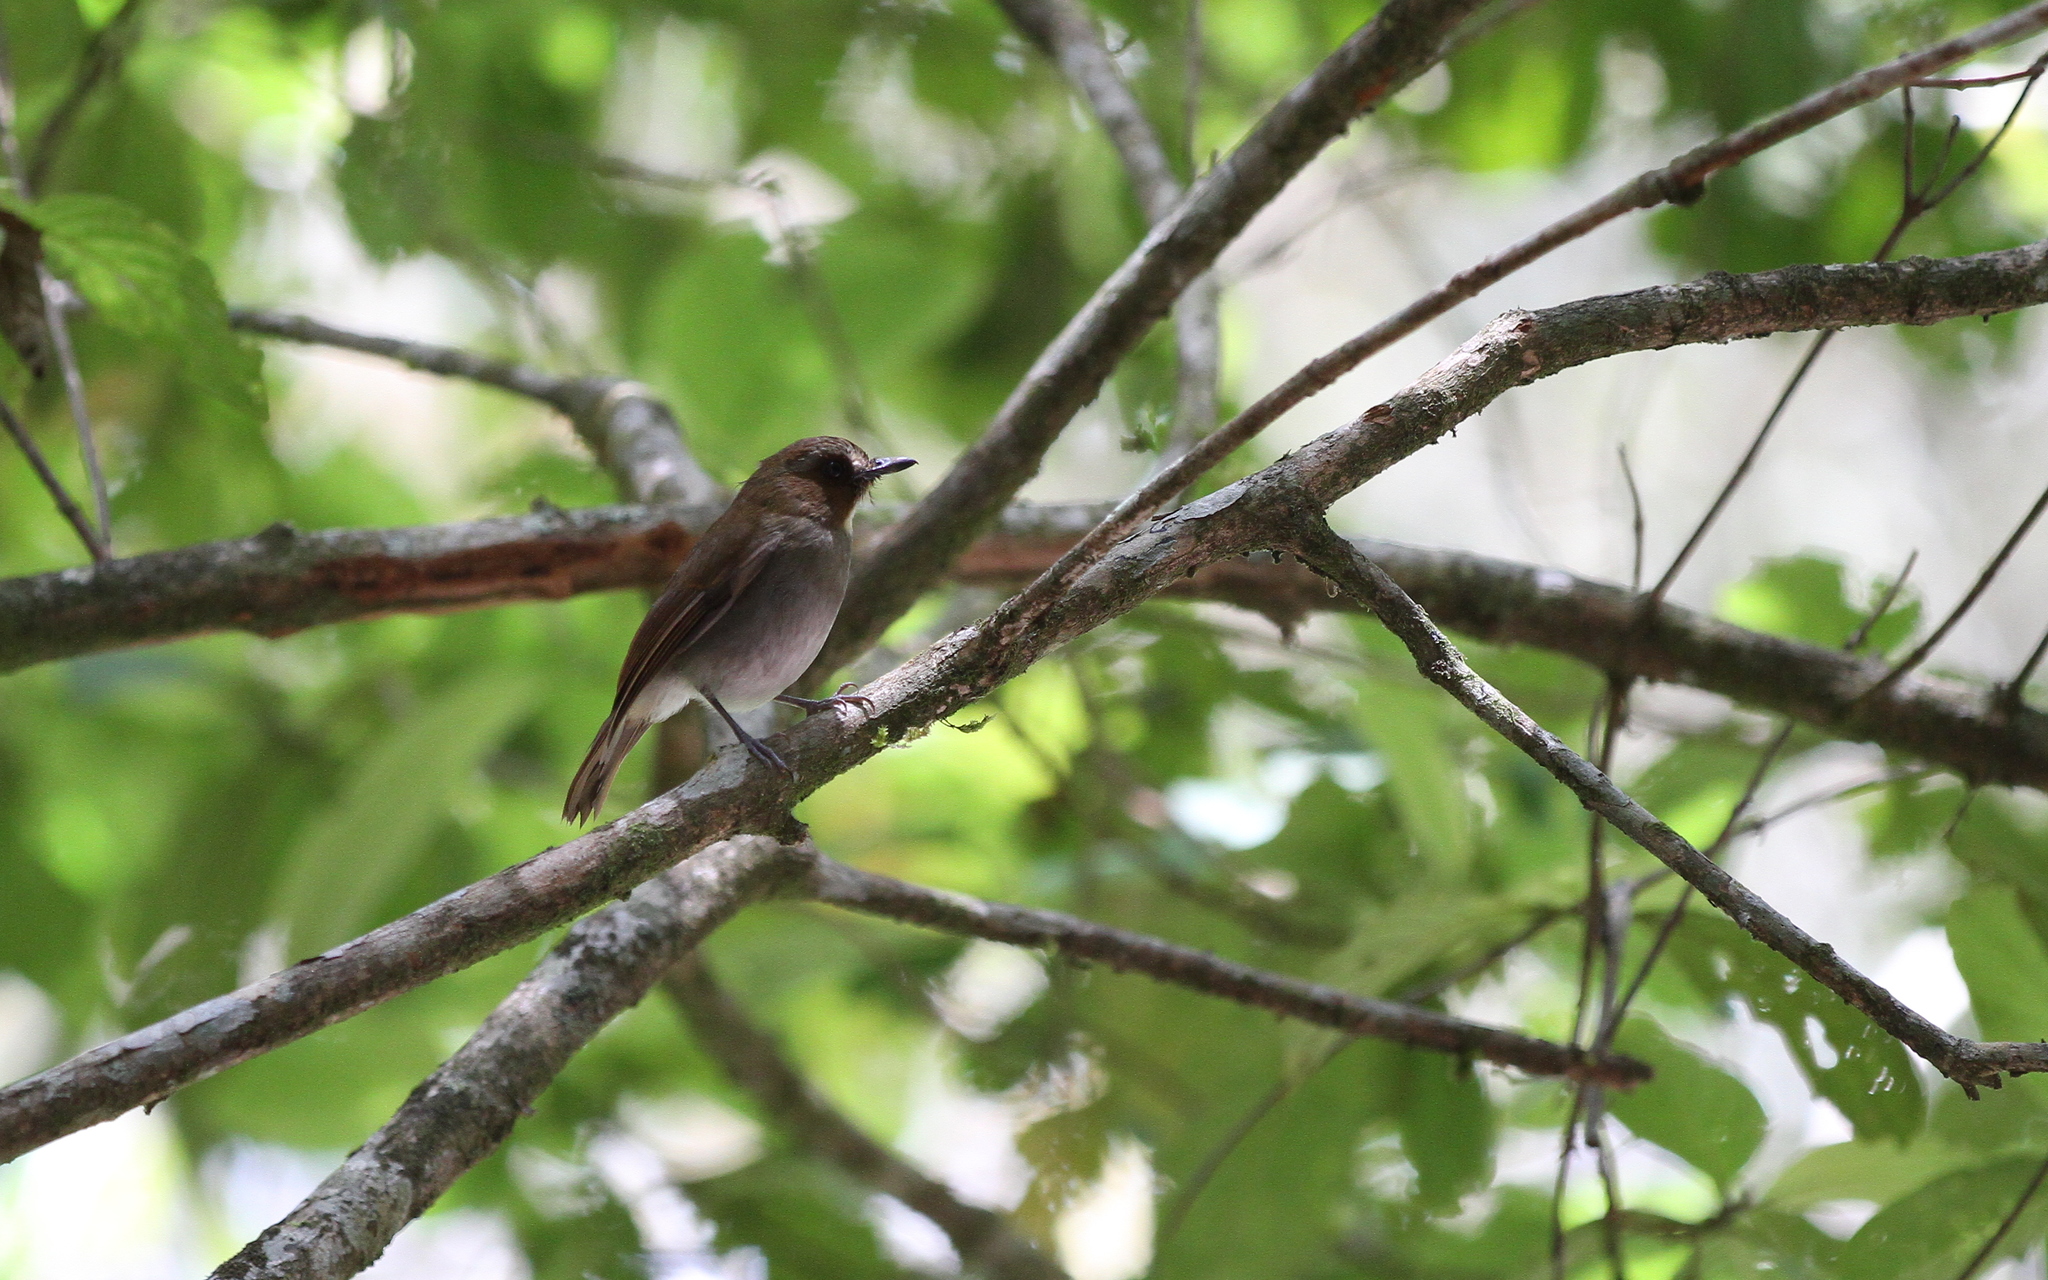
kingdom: Animalia
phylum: Chordata
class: Aves
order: Passeriformes
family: Muscicapidae
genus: Rhinomyias
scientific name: Rhinomyias gularis
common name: Eyebrowed jungle flycatcher
